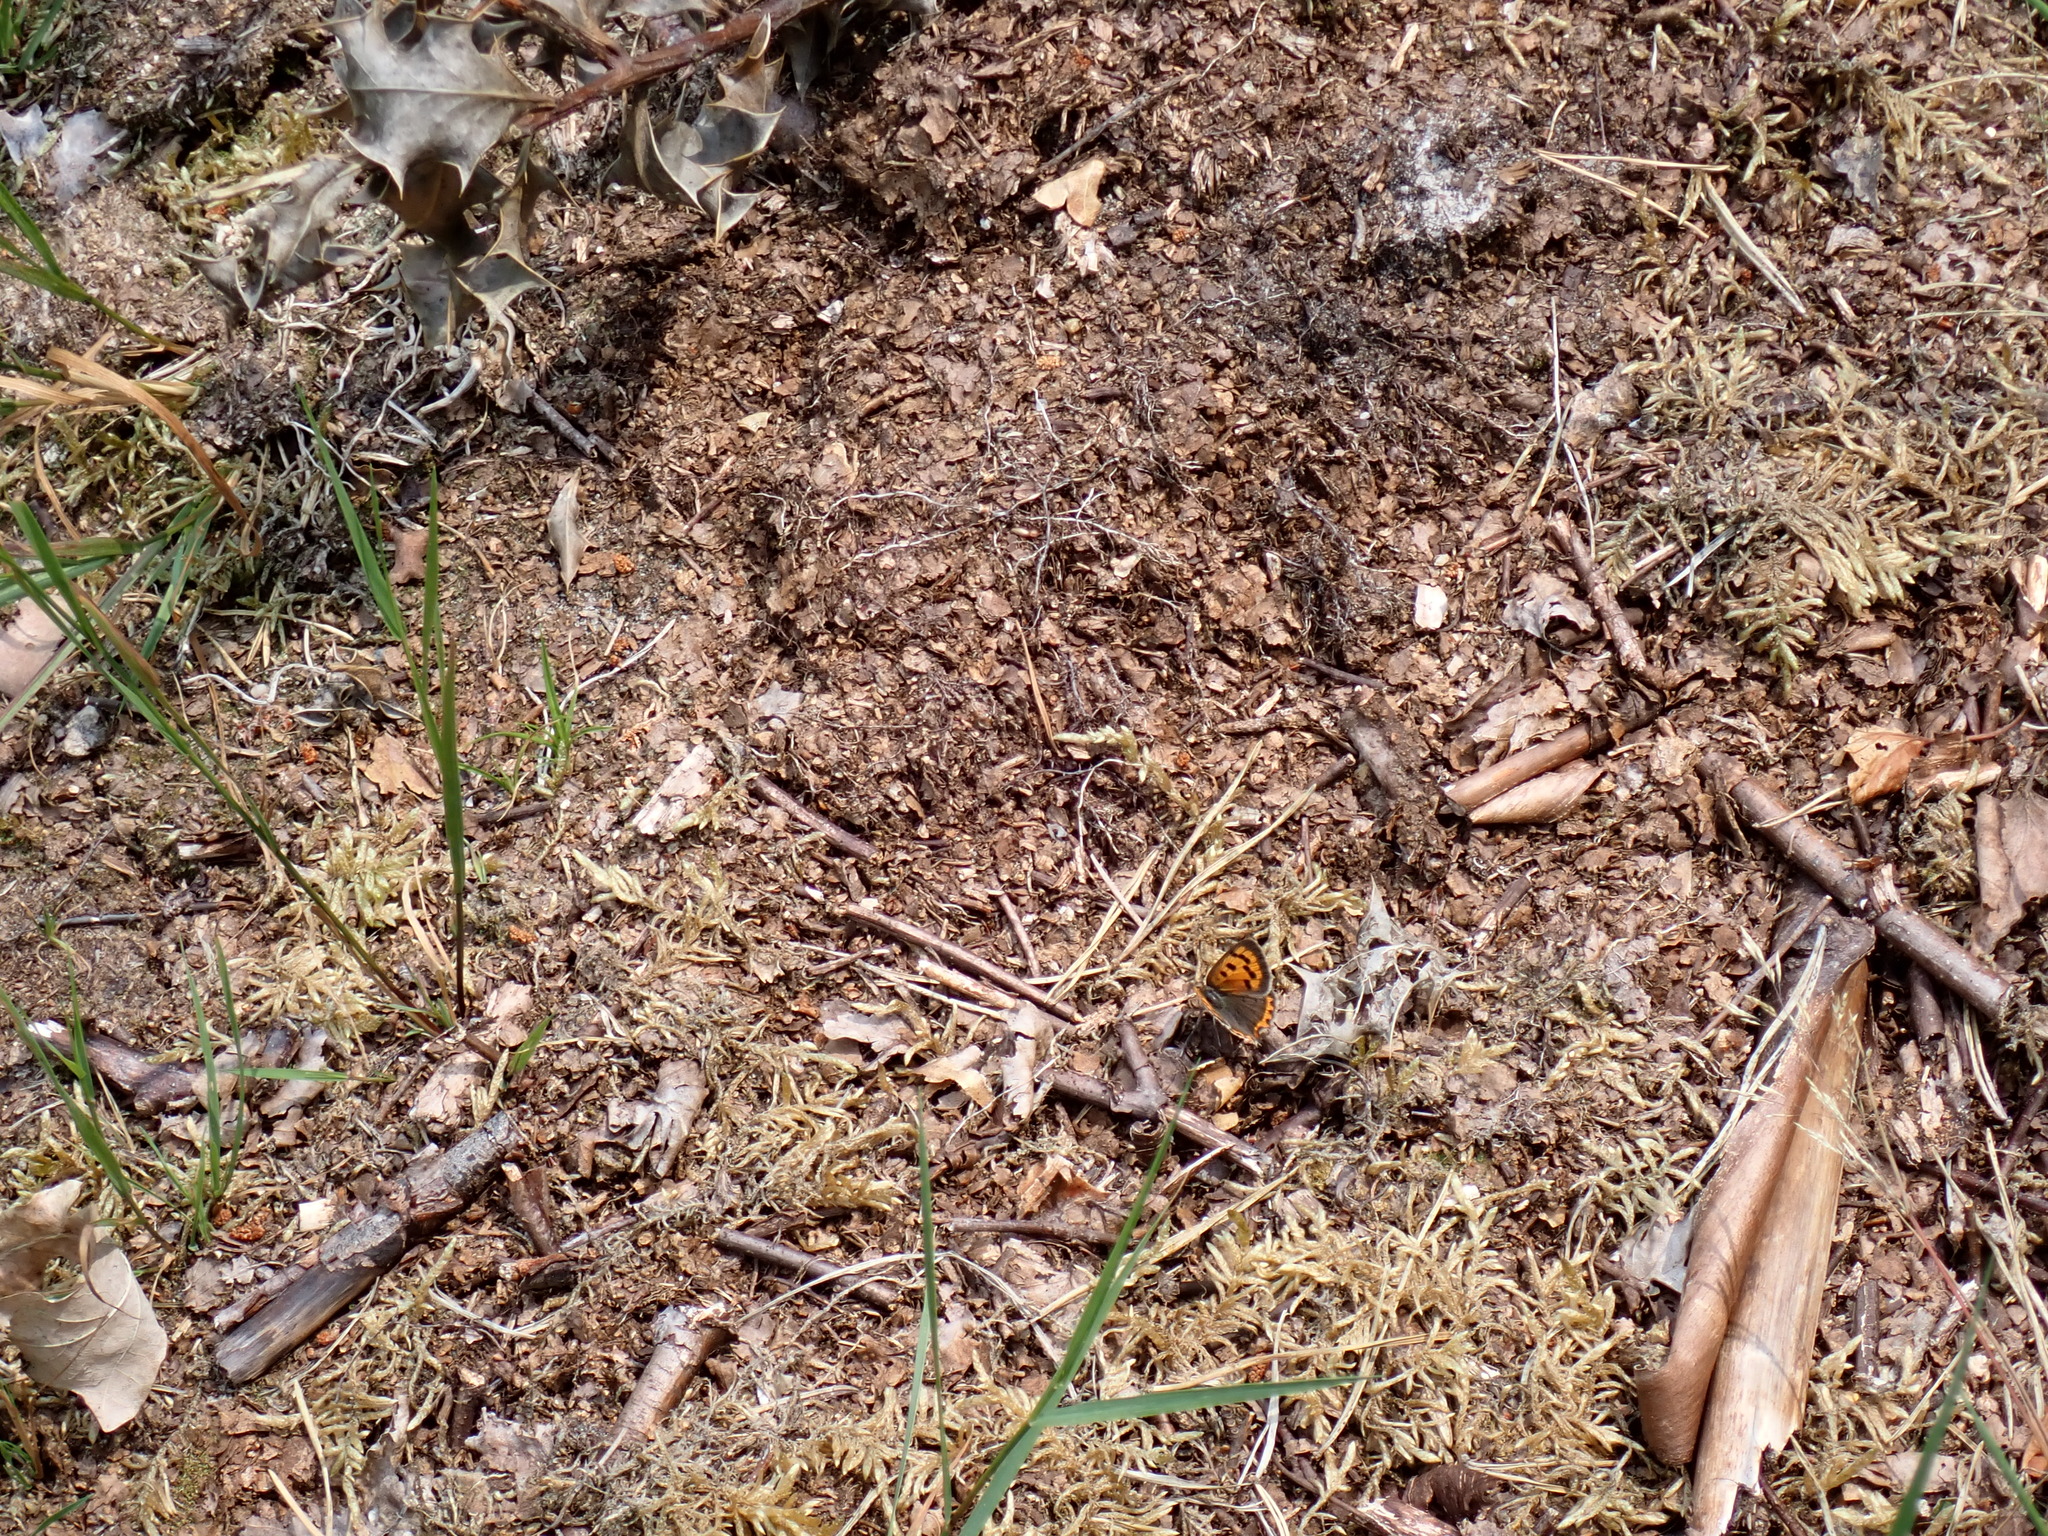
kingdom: Animalia
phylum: Arthropoda
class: Insecta
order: Lepidoptera
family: Lycaenidae
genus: Lycaena
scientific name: Lycaena phlaeas
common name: Small copper
